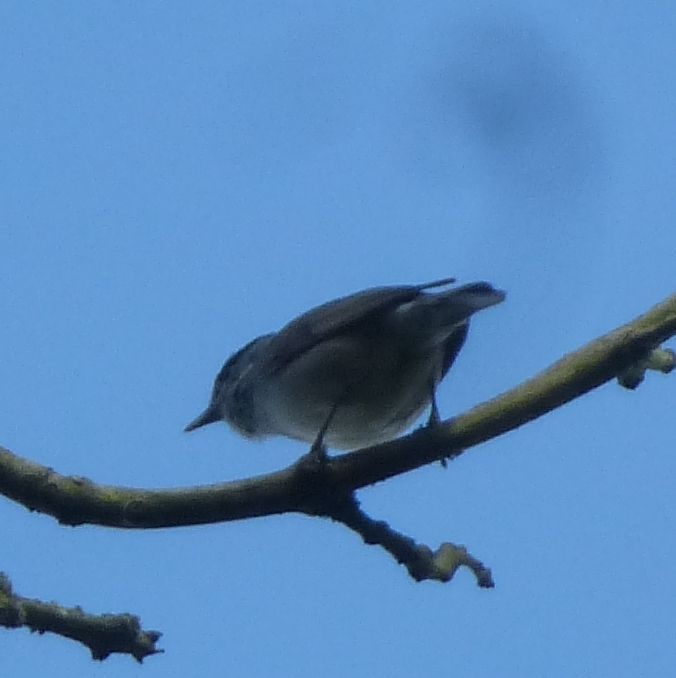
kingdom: Animalia
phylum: Chordata
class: Aves
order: Passeriformes
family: Sylviidae
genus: Sylvia
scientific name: Sylvia atricapilla
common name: Eurasian blackcap
